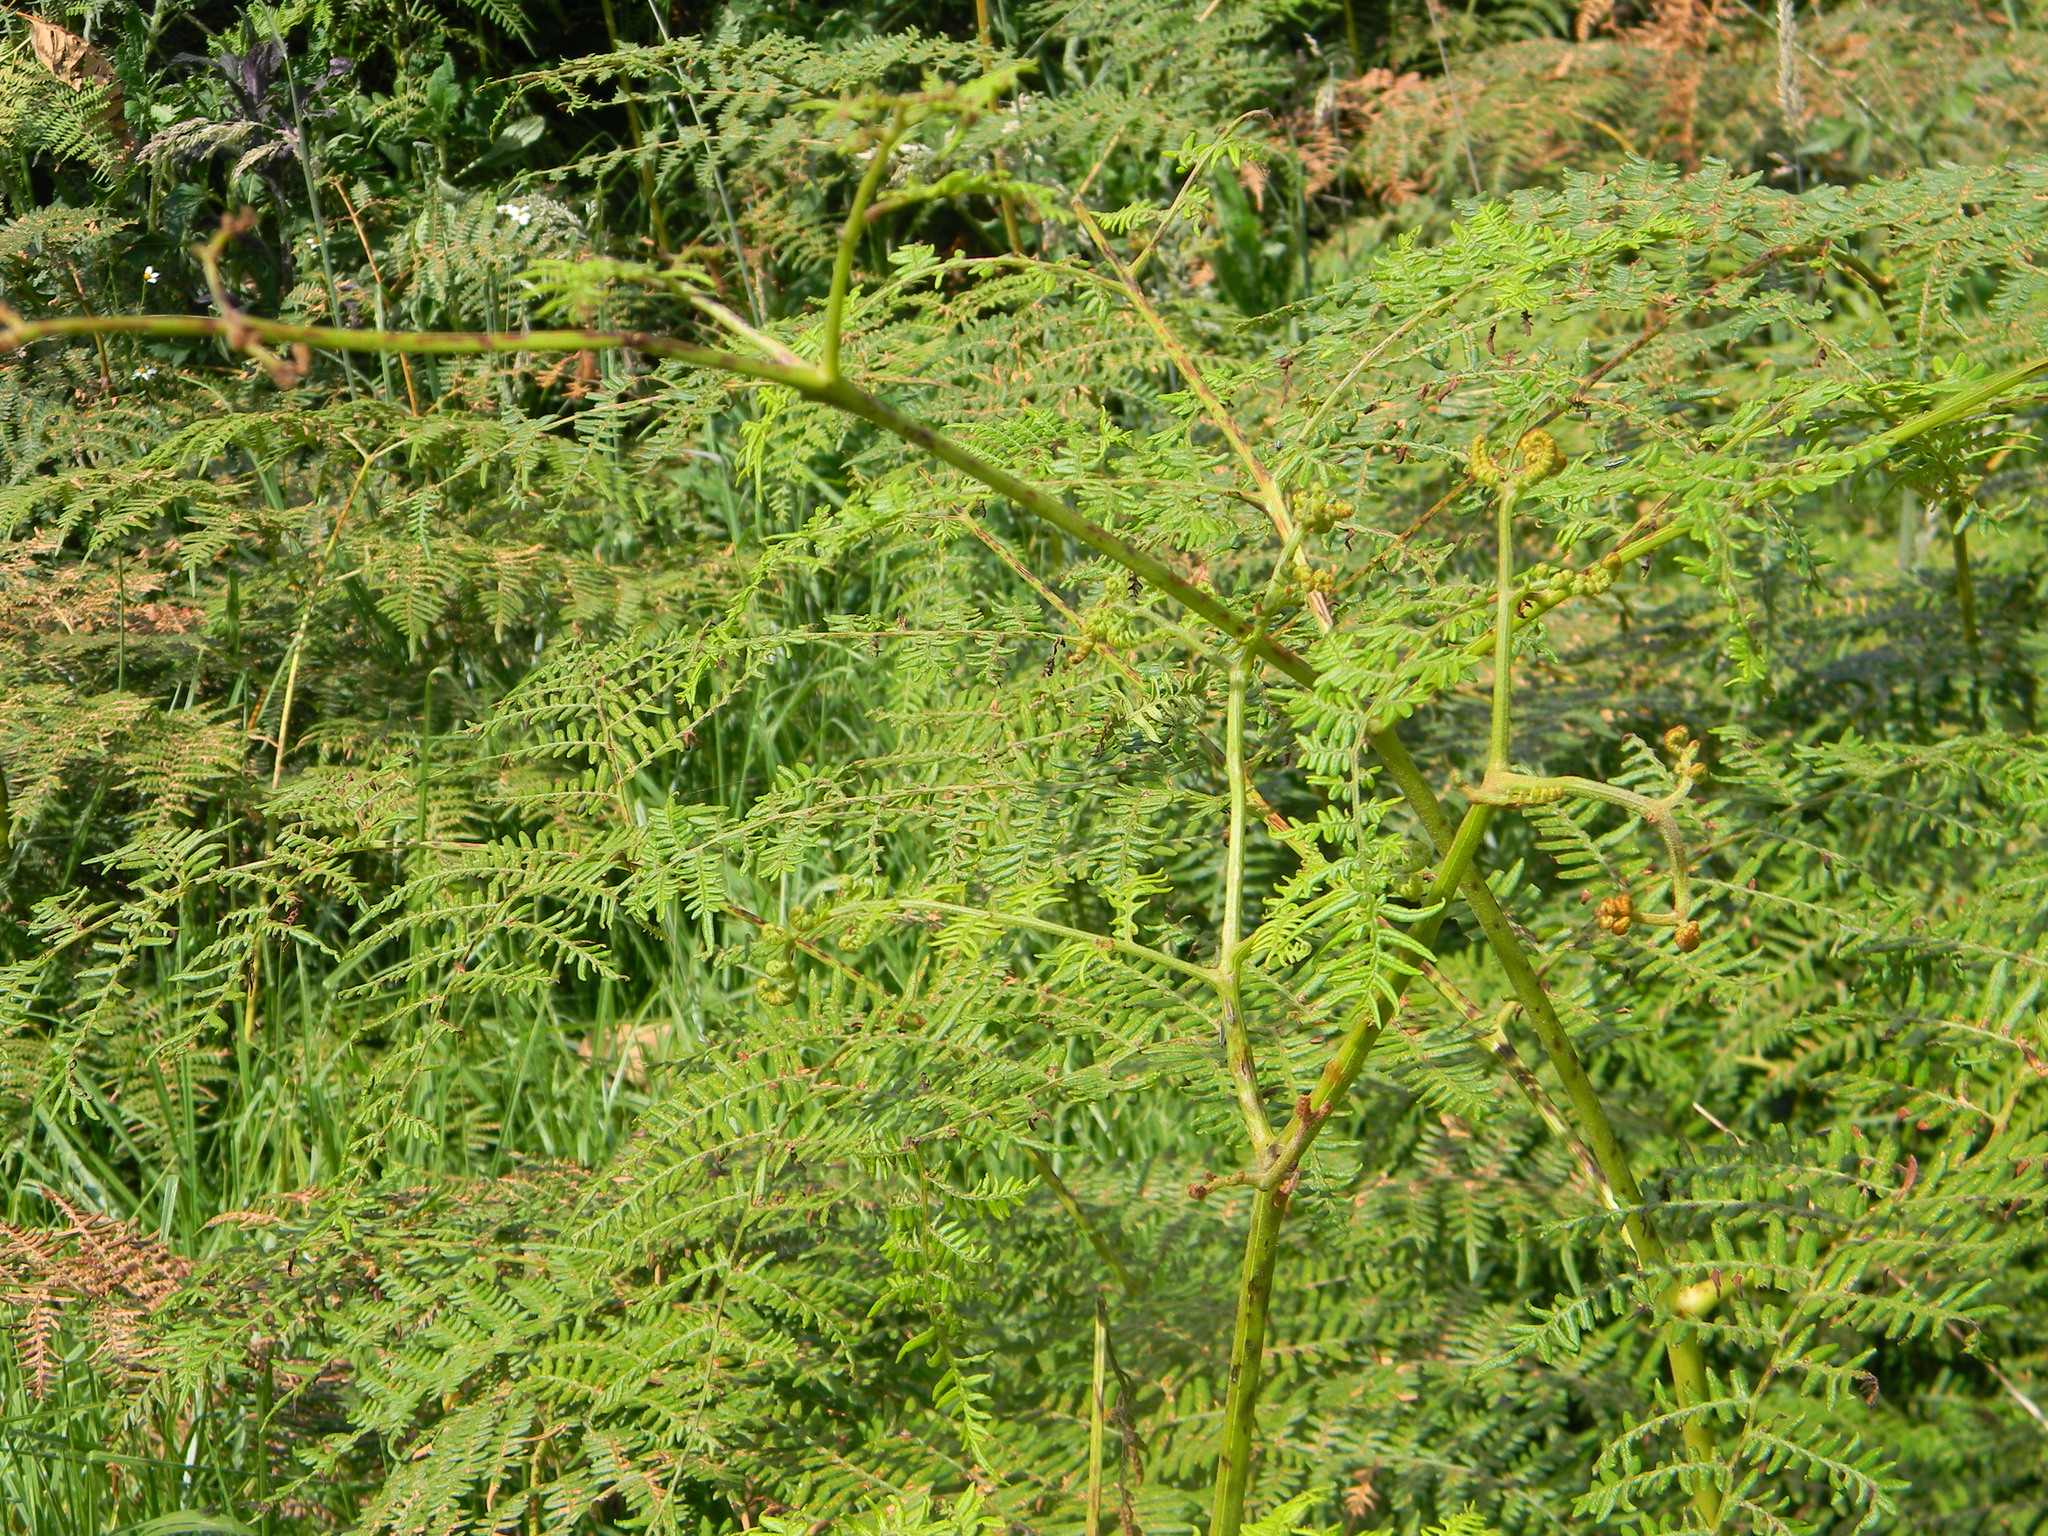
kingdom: Plantae
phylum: Tracheophyta
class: Polypodiopsida
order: Polypodiales
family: Dennstaedtiaceae
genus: Pteridium
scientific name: Pteridium esculentum
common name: Bracken fern
